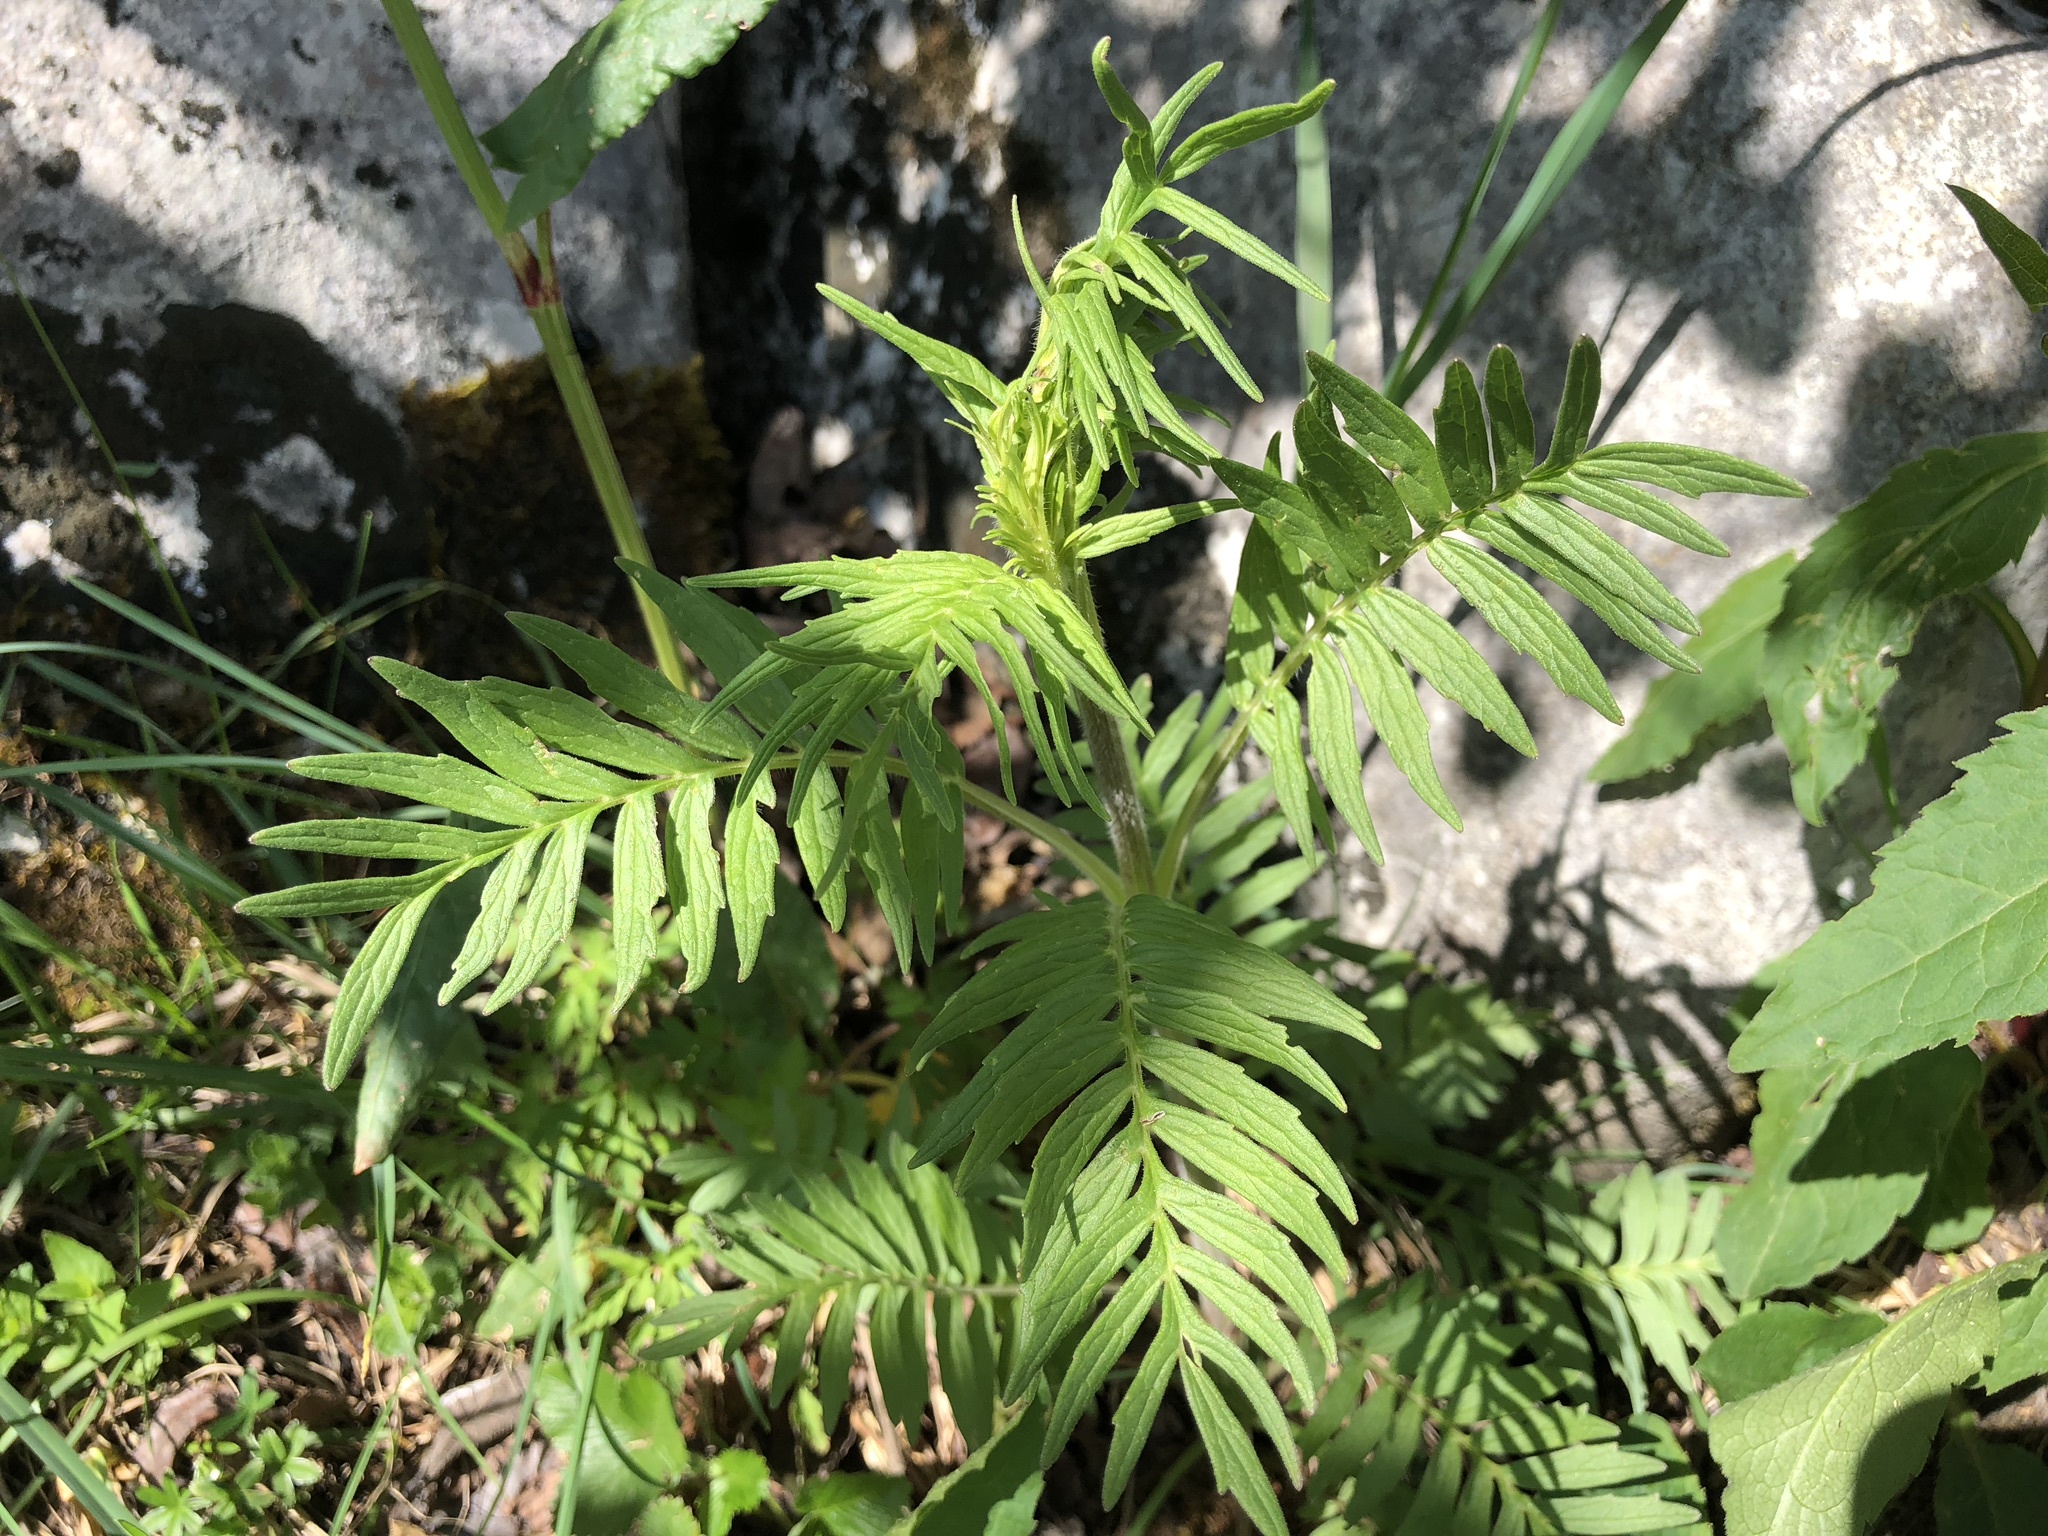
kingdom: Plantae
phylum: Tracheophyta
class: Magnoliopsida
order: Dipsacales
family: Caprifoliaceae
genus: Valeriana
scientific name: Valeriana officinalis
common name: Common valerian
